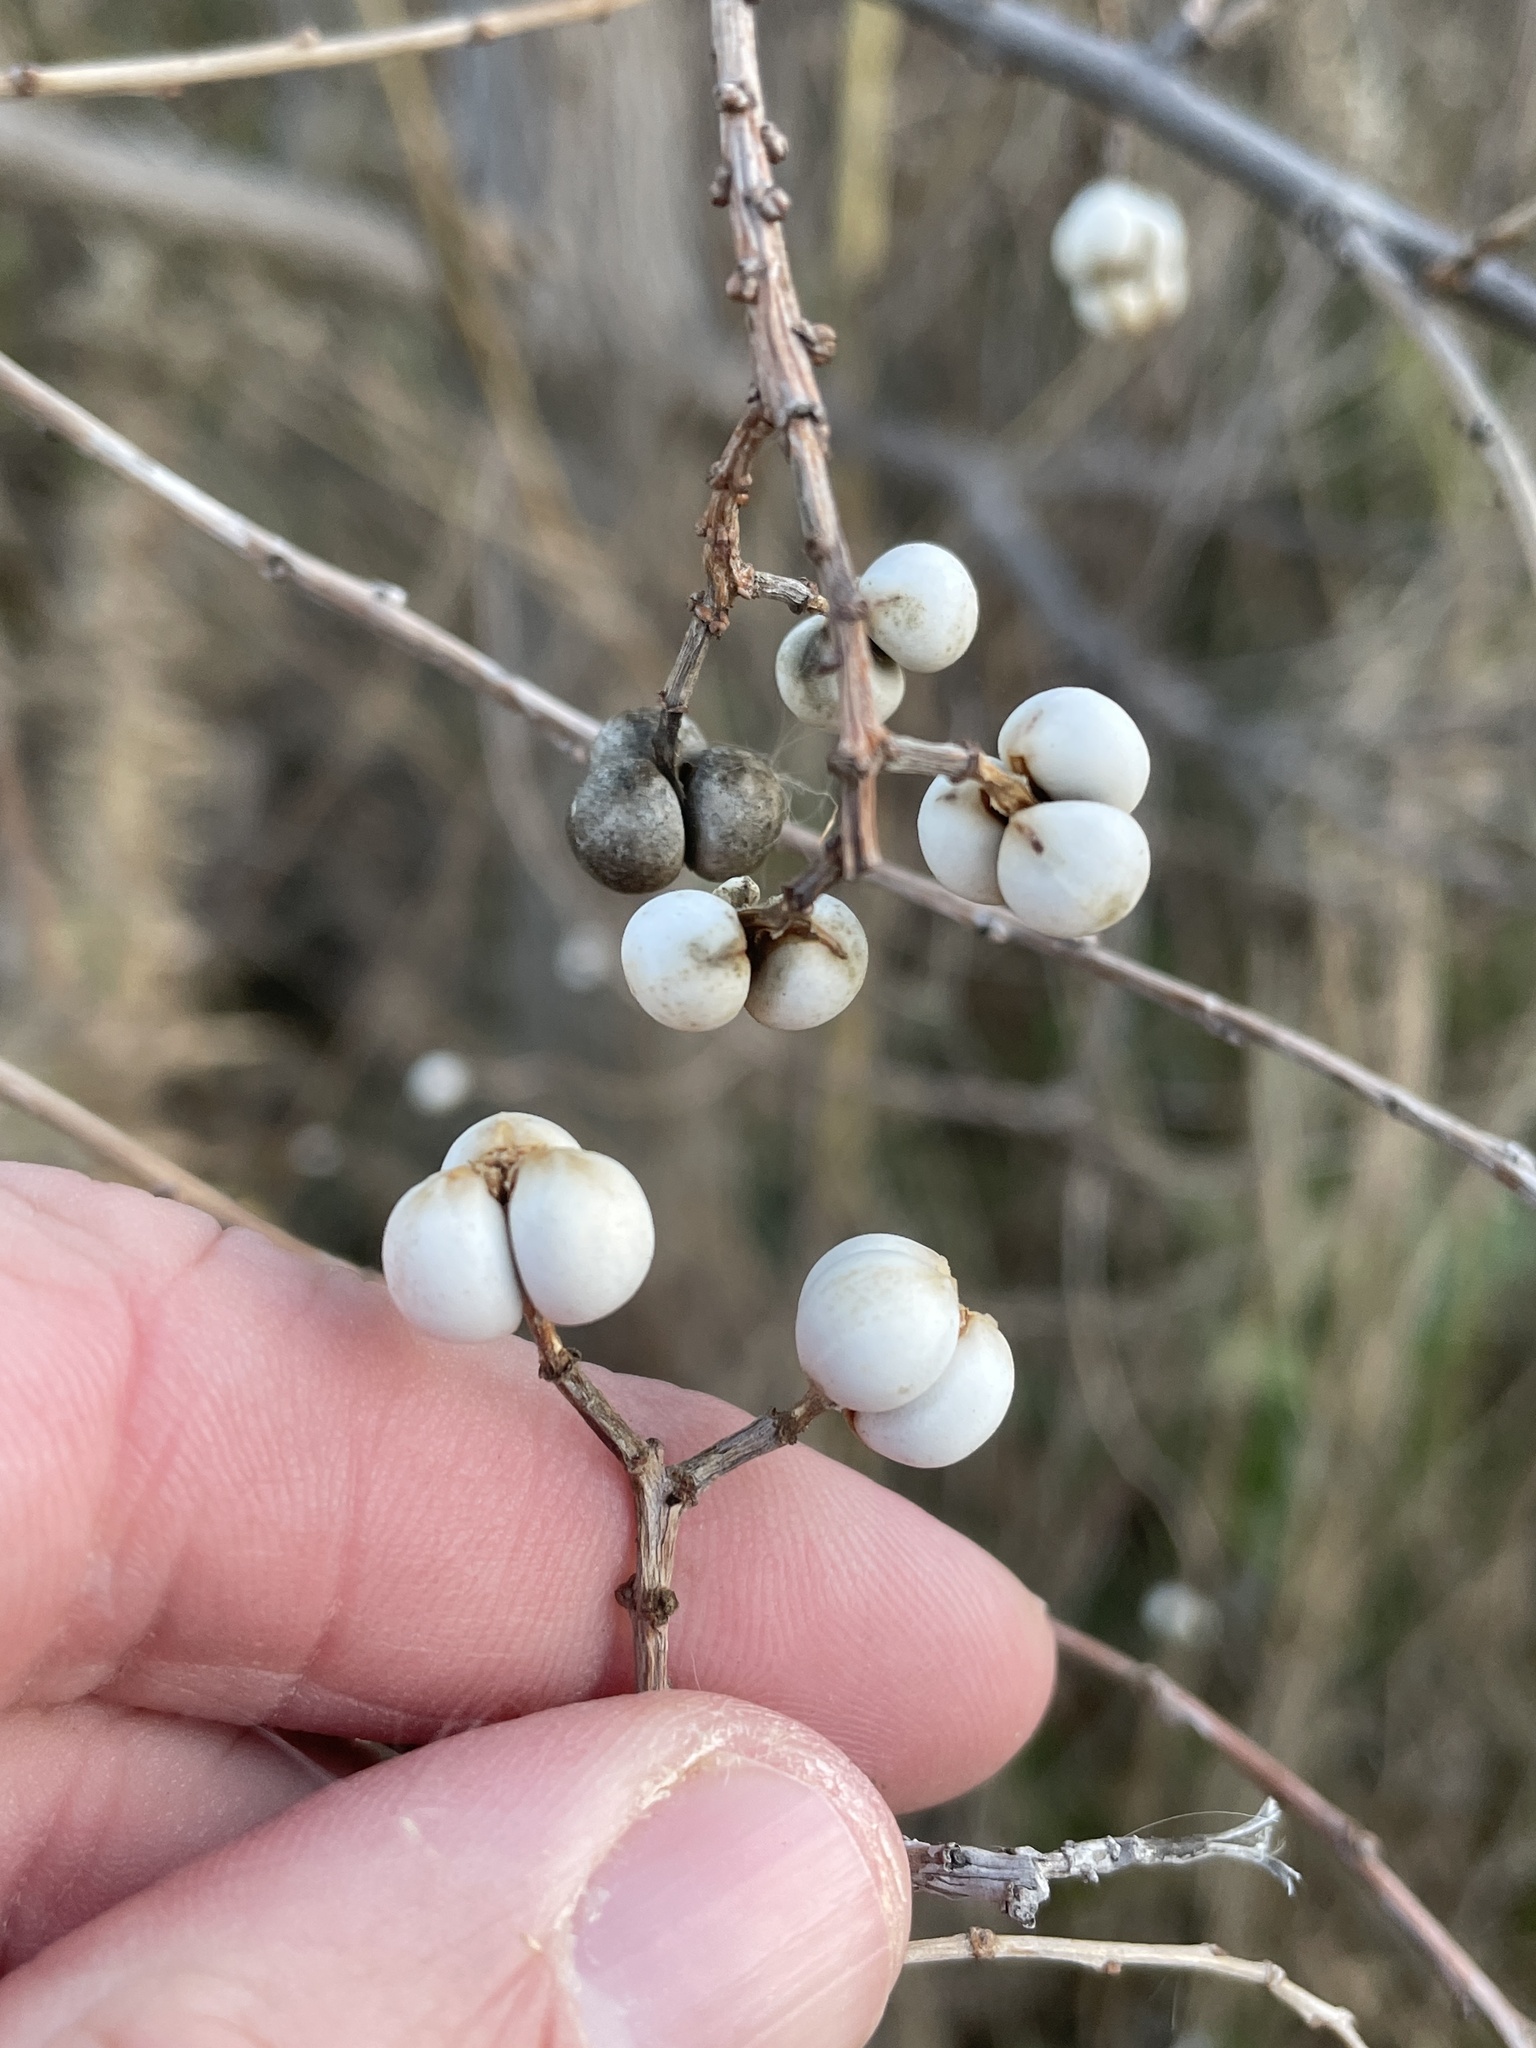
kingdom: Plantae
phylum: Tracheophyta
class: Magnoliopsida
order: Malpighiales
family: Euphorbiaceae
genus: Triadica
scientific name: Triadica sebifera
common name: Chinese tallow
